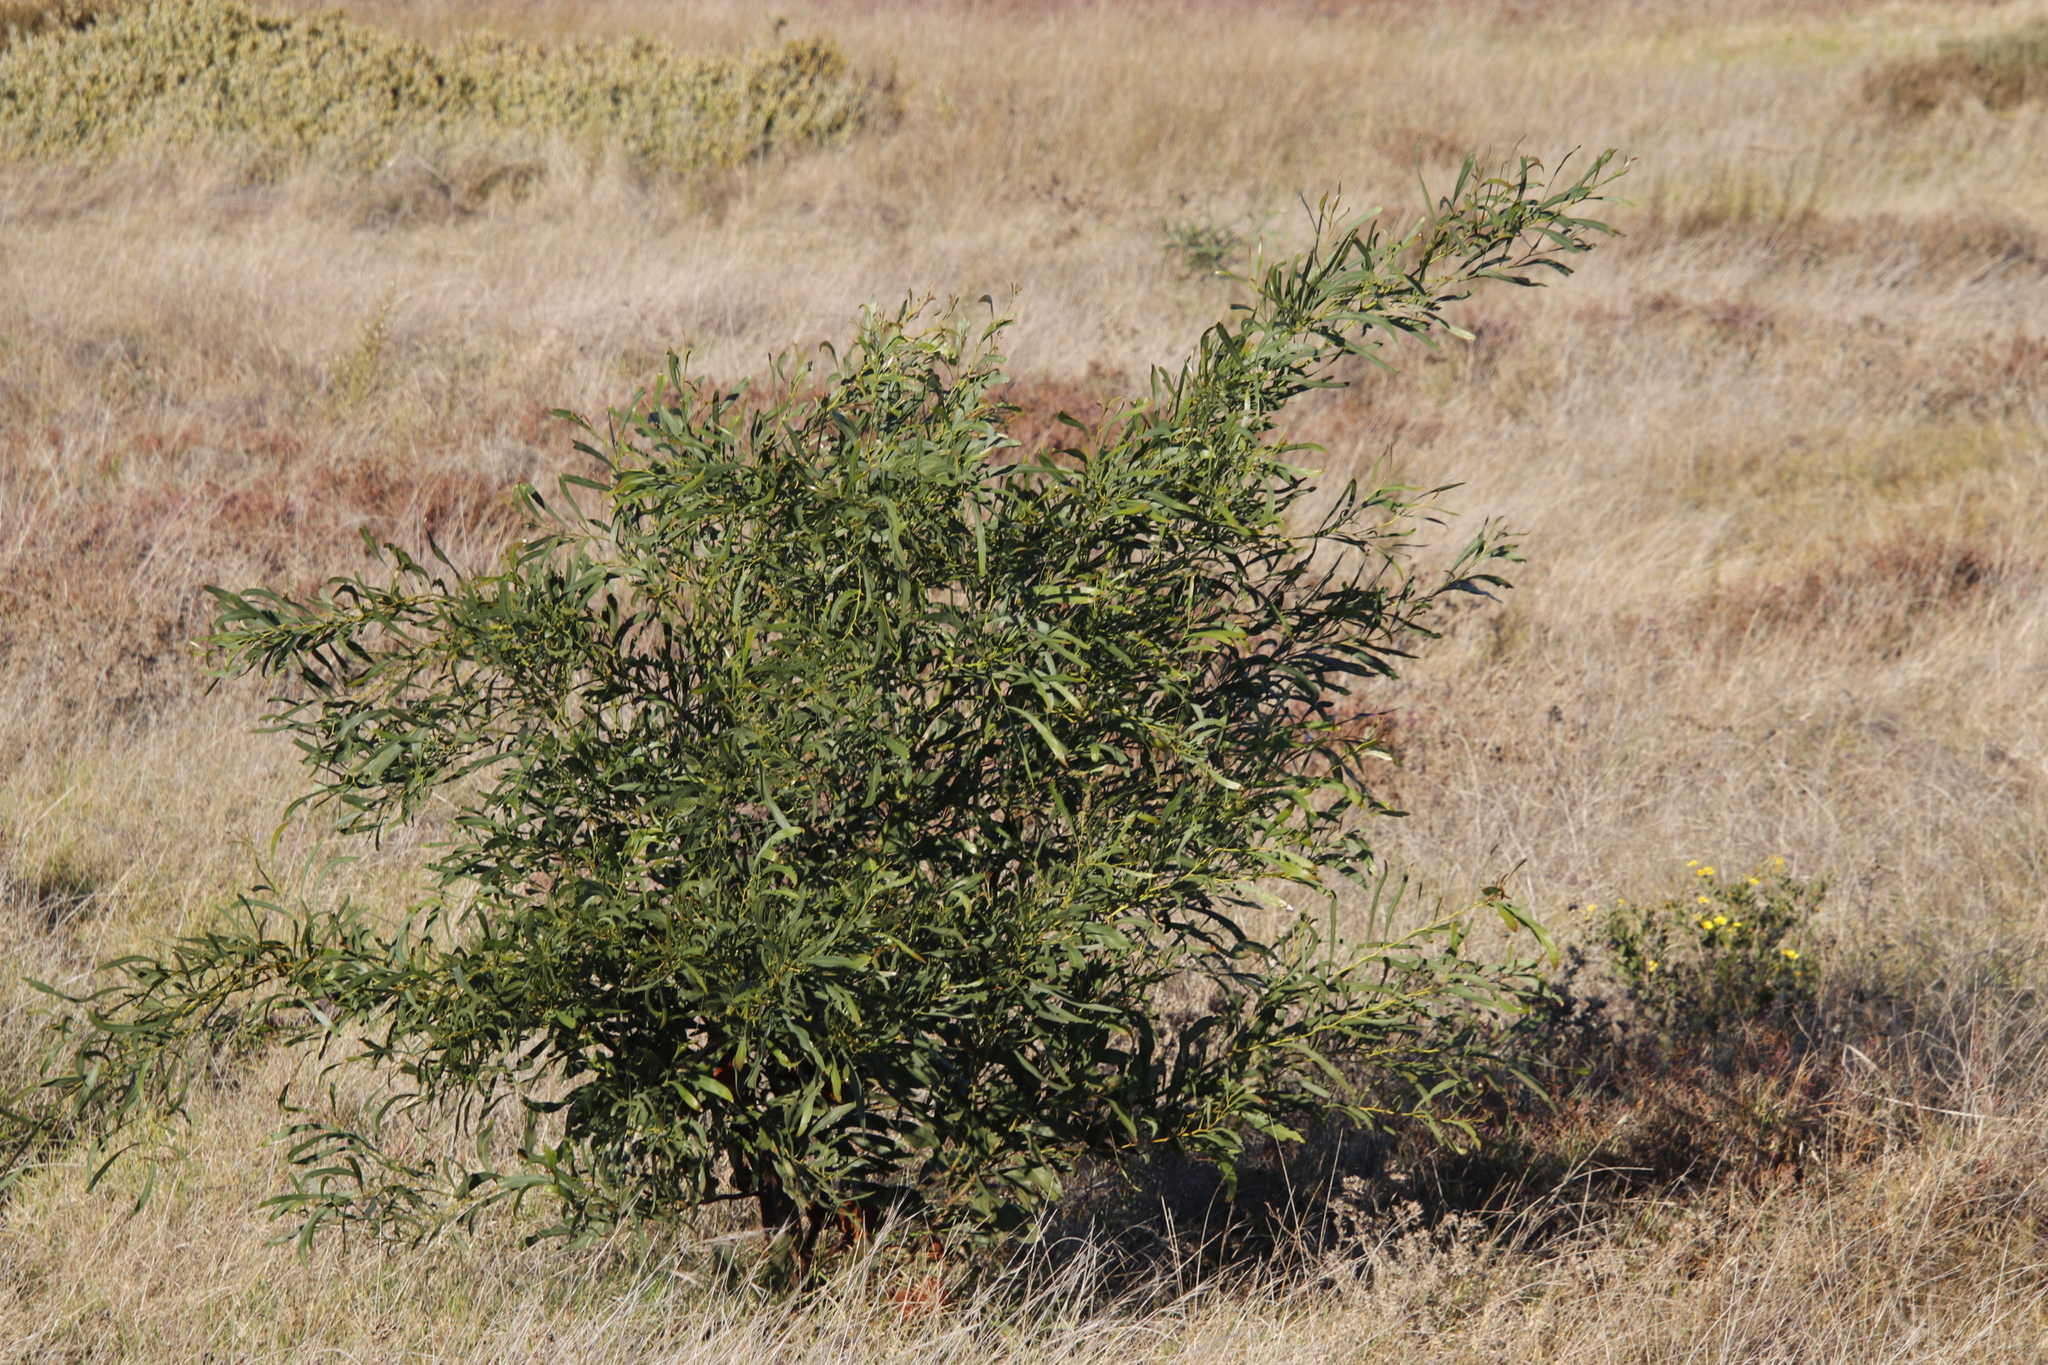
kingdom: Plantae
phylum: Tracheophyta
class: Magnoliopsida
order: Fabales
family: Fabaceae
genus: Acacia
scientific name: Acacia saligna
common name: Orange wattle
